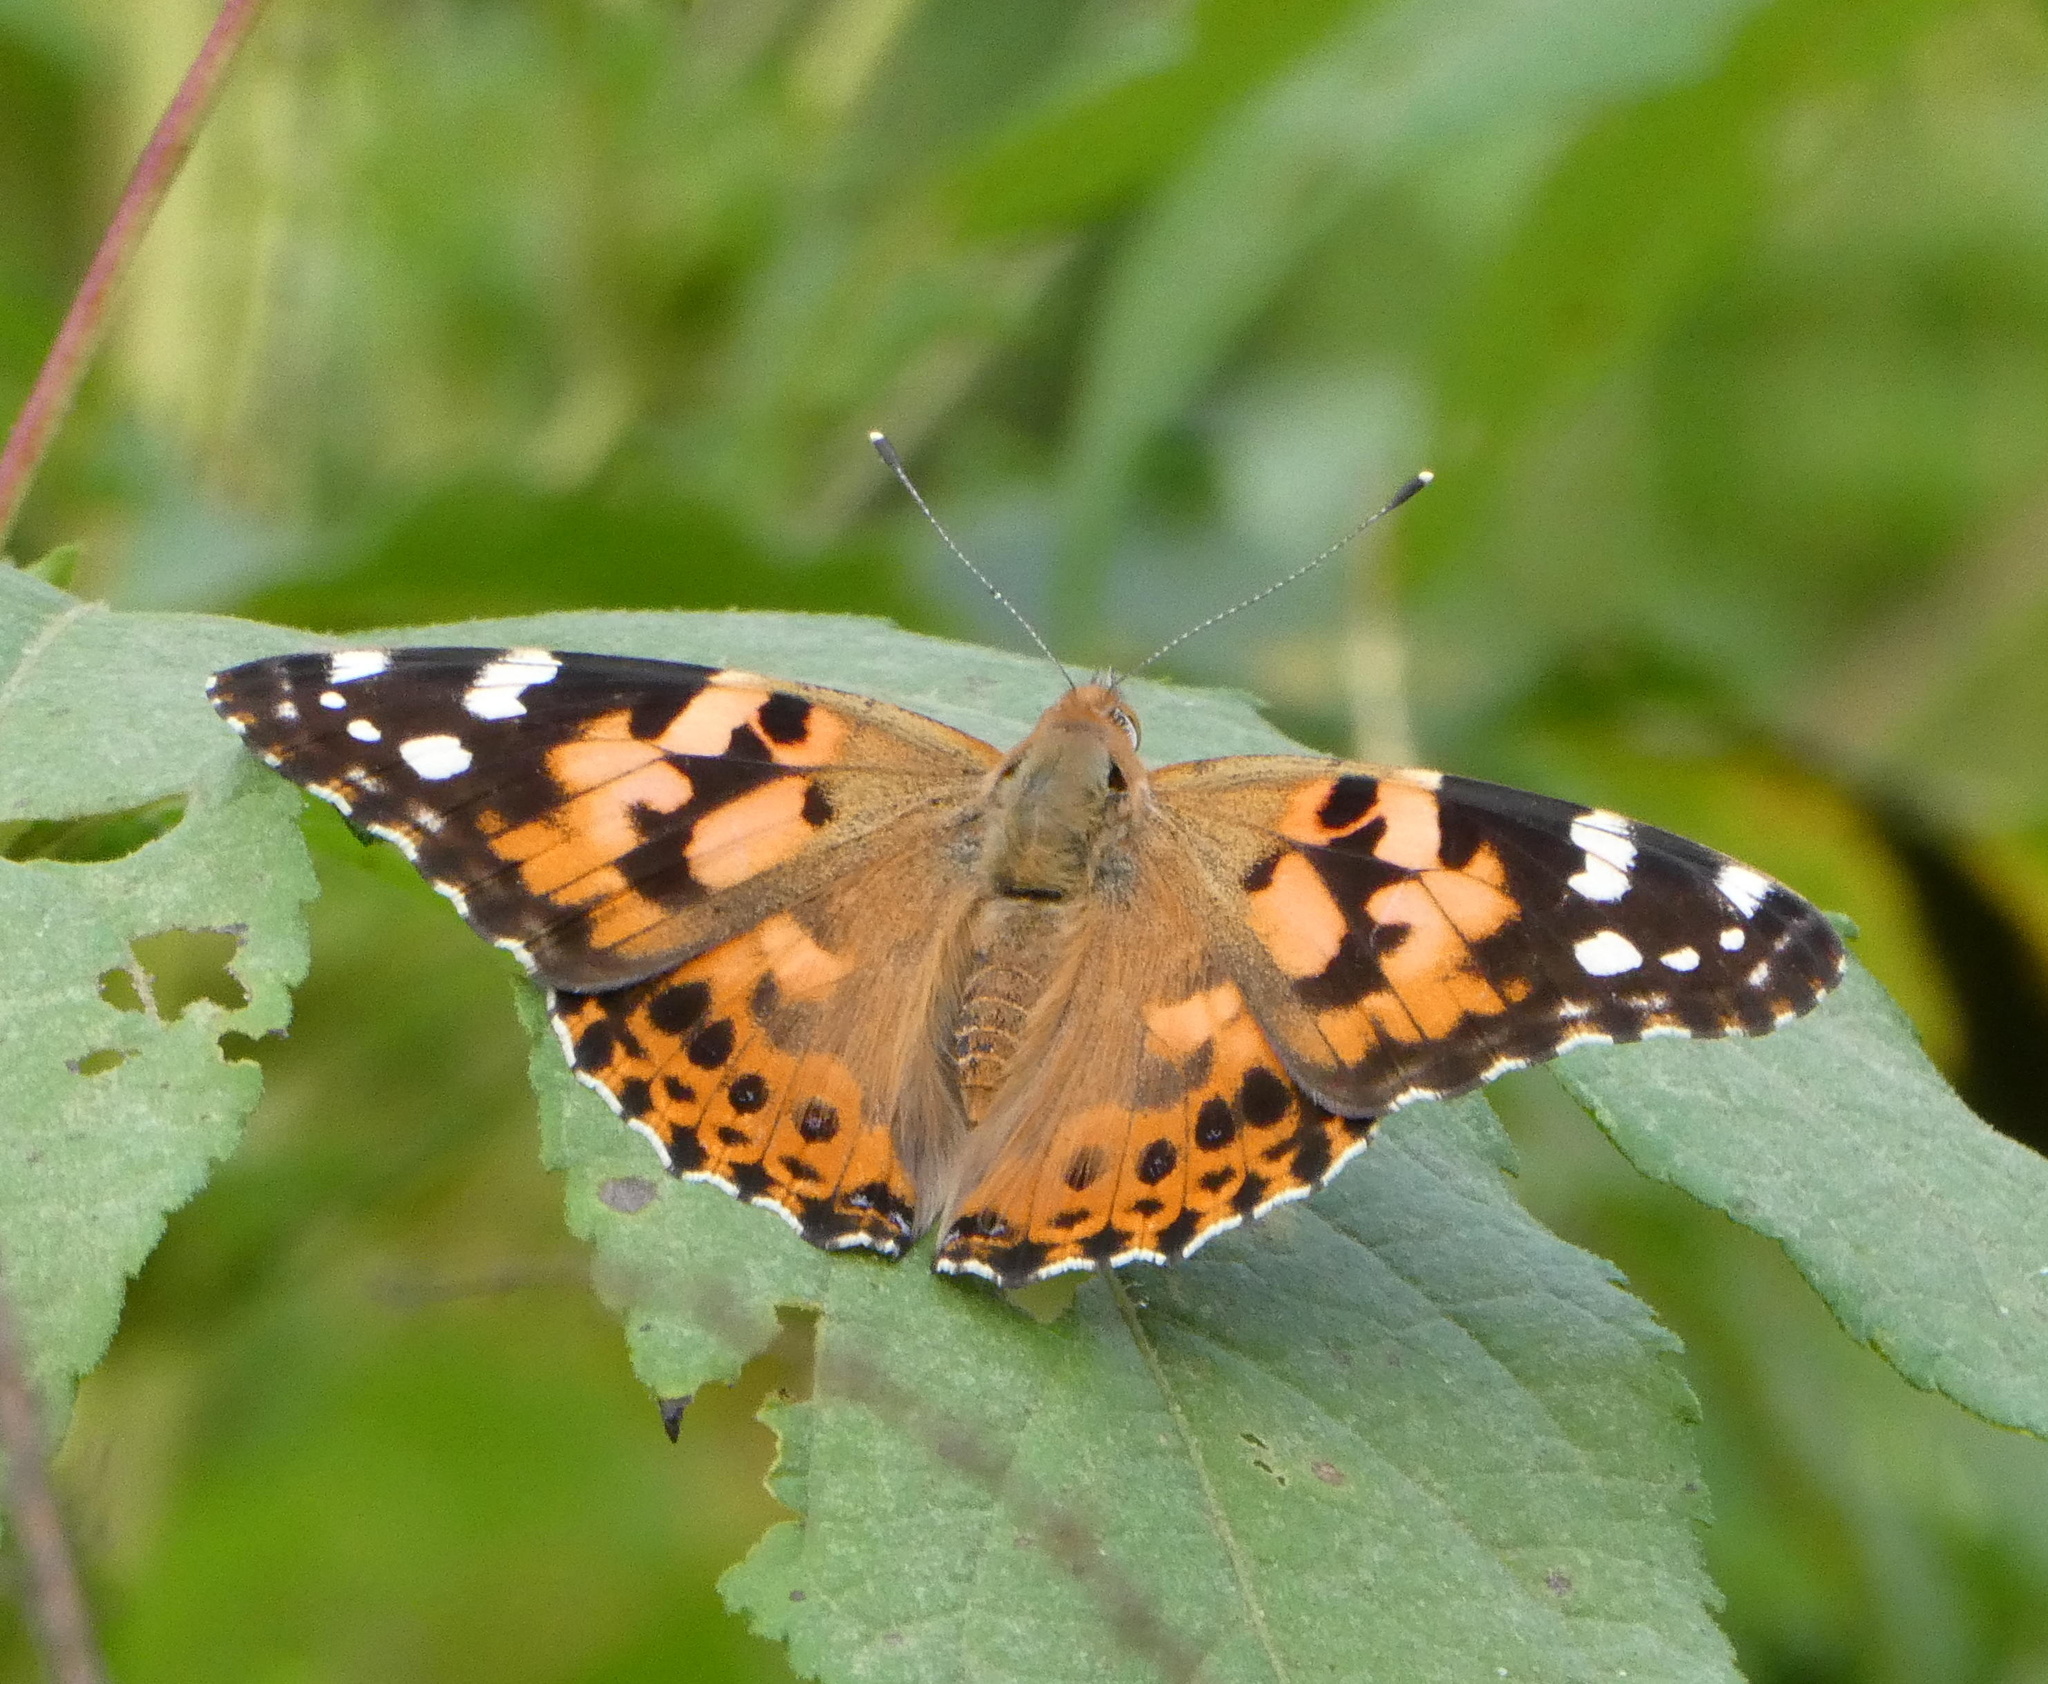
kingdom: Animalia
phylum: Arthropoda
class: Insecta
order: Lepidoptera
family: Nymphalidae
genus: Vanessa
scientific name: Vanessa cardui
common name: Painted lady
